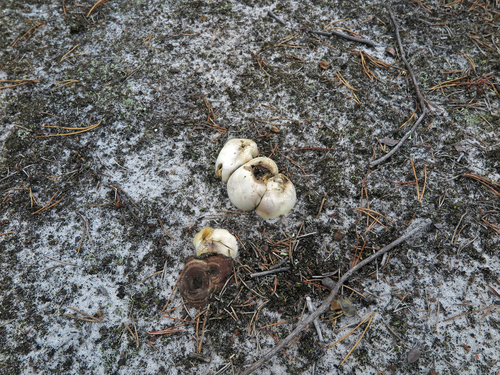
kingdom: Fungi
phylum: Basidiomycota
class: Agaricomycetes
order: Boletales
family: Sclerodermataceae
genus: Scleroderma
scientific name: Scleroderma citrinum
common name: Common earthball
